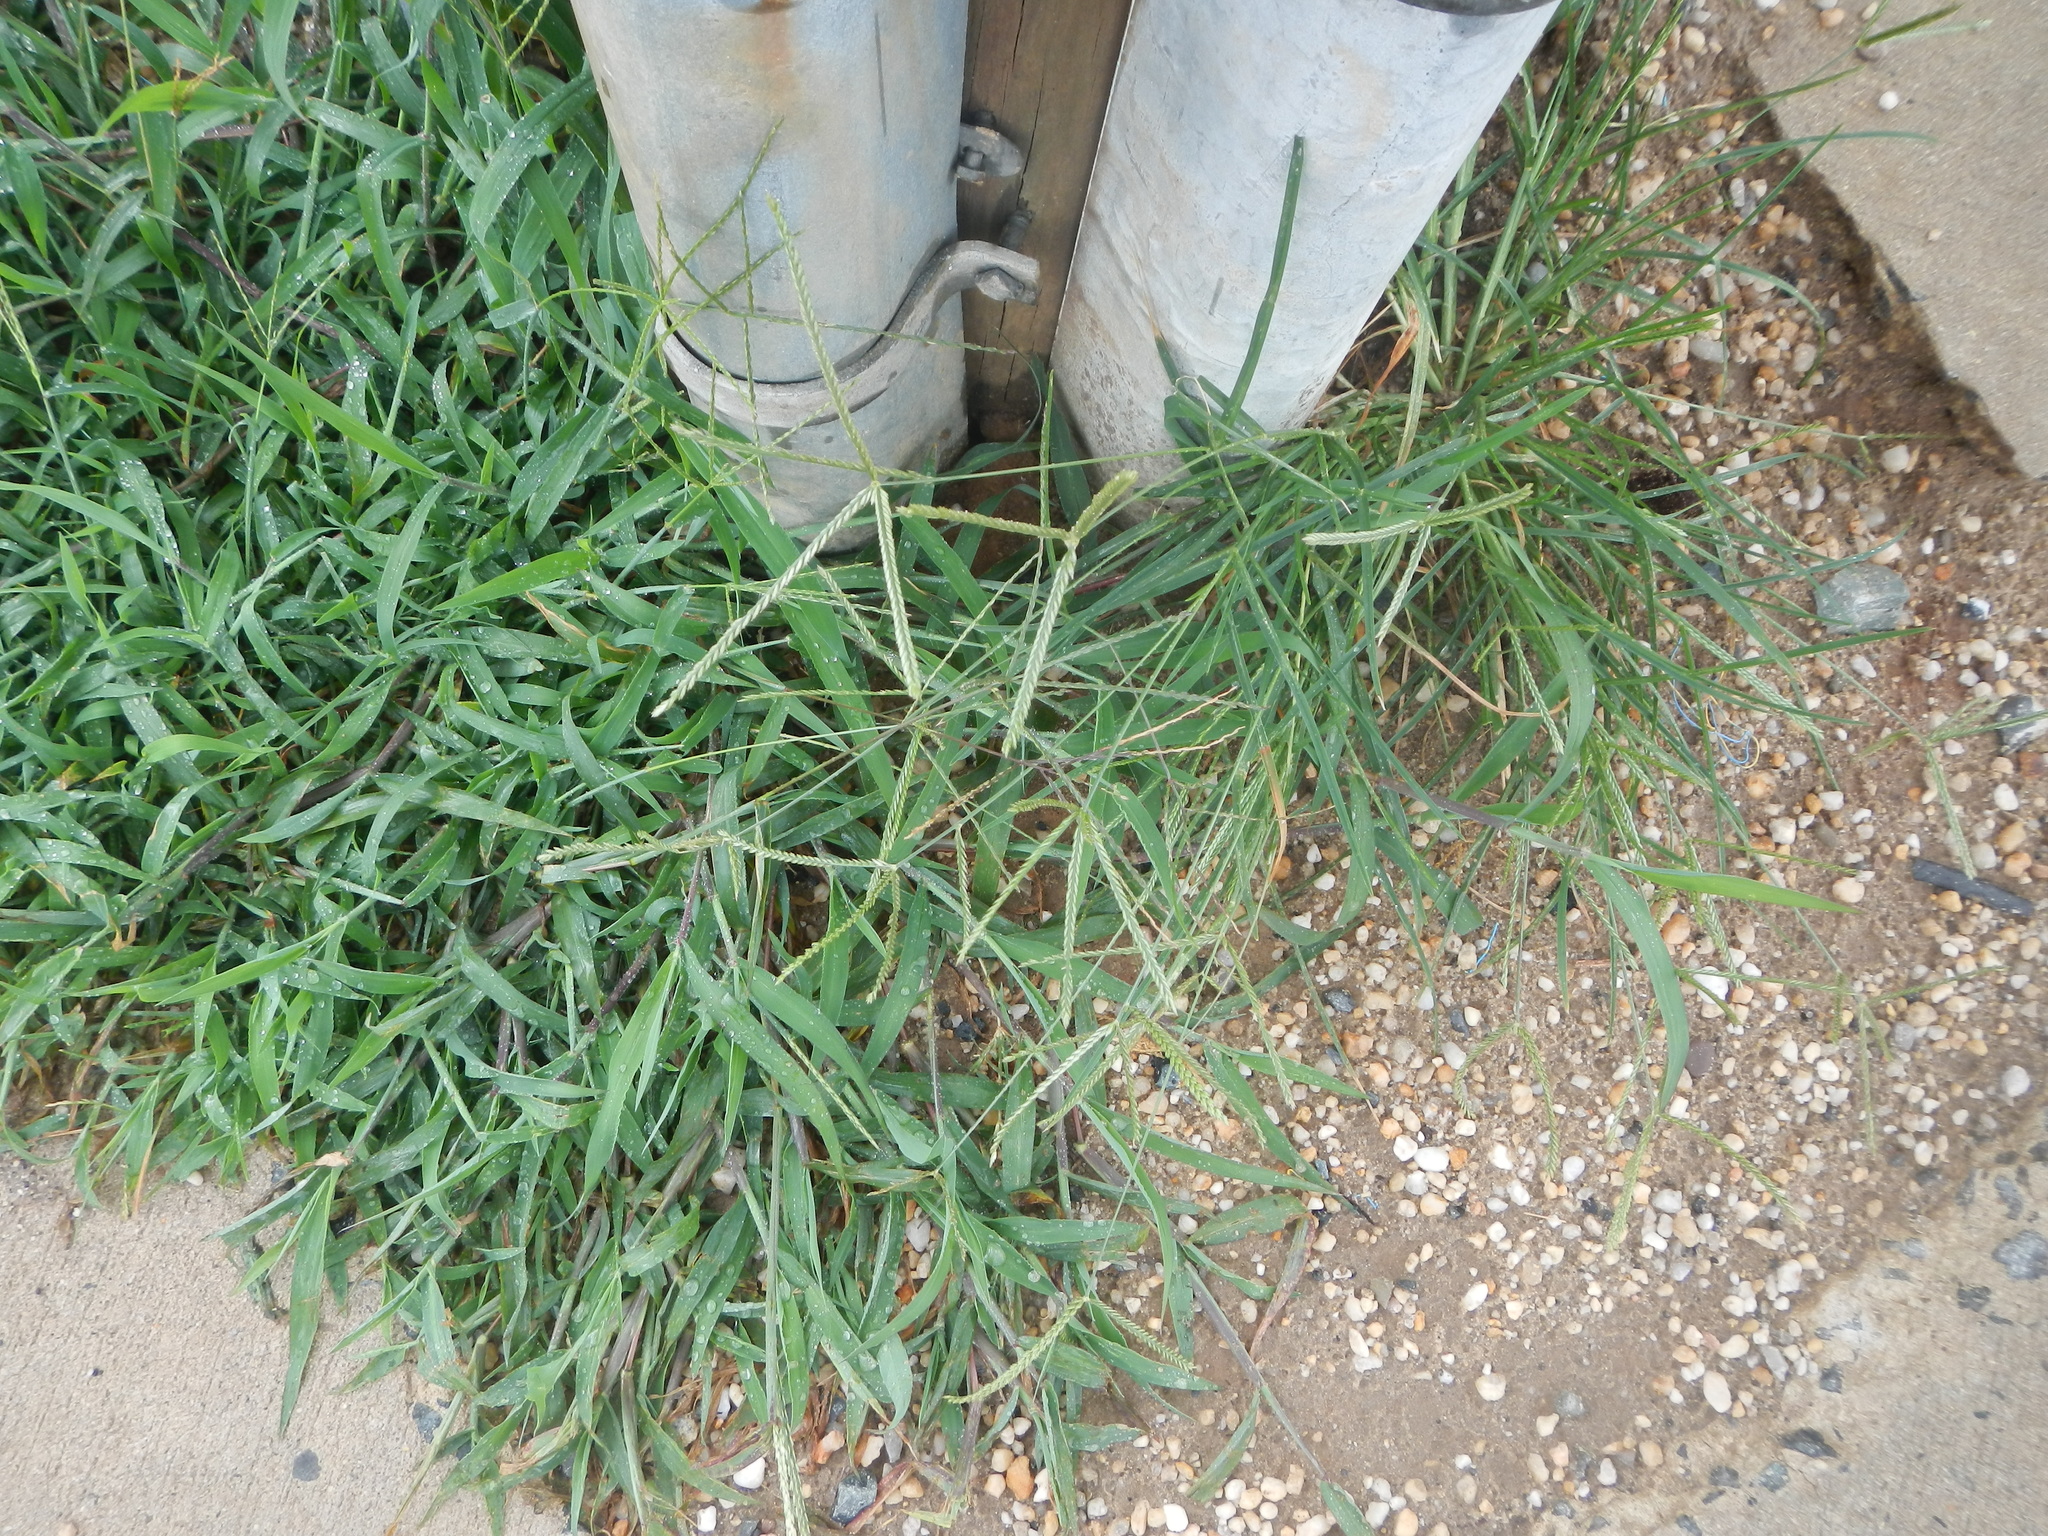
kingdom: Plantae
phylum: Tracheophyta
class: Liliopsida
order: Poales
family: Poaceae
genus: Eleusine
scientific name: Eleusine indica
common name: Yard-grass
